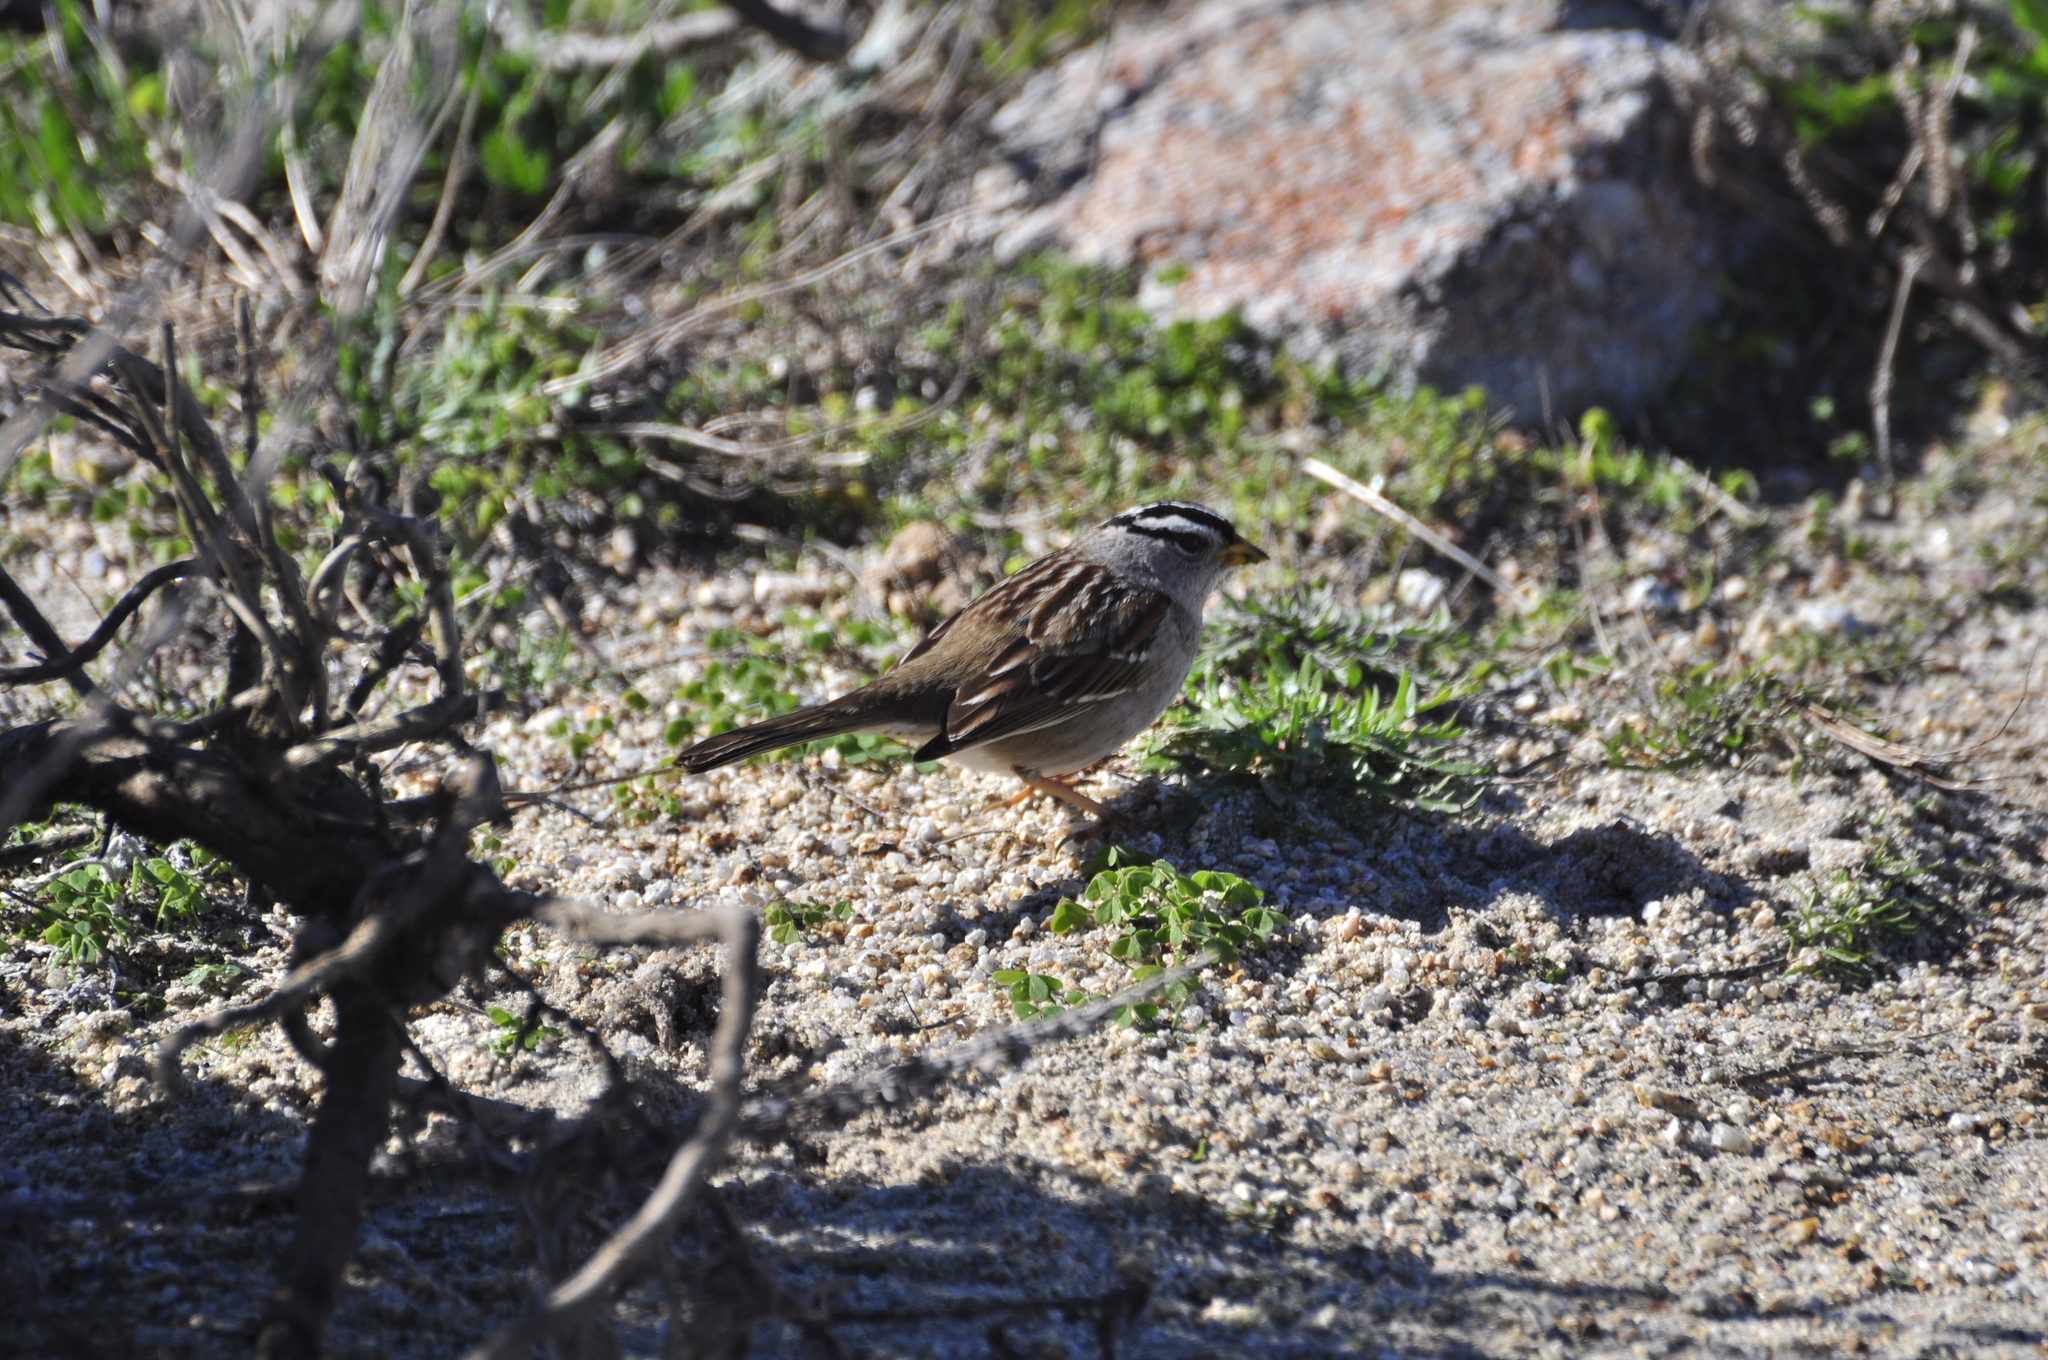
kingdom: Animalia
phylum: Chordata
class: Aves
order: Passeriformes
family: Passerellidae
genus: Zonotrichia
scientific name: Zonotrichia leucophrys
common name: White-crowned sparrow
